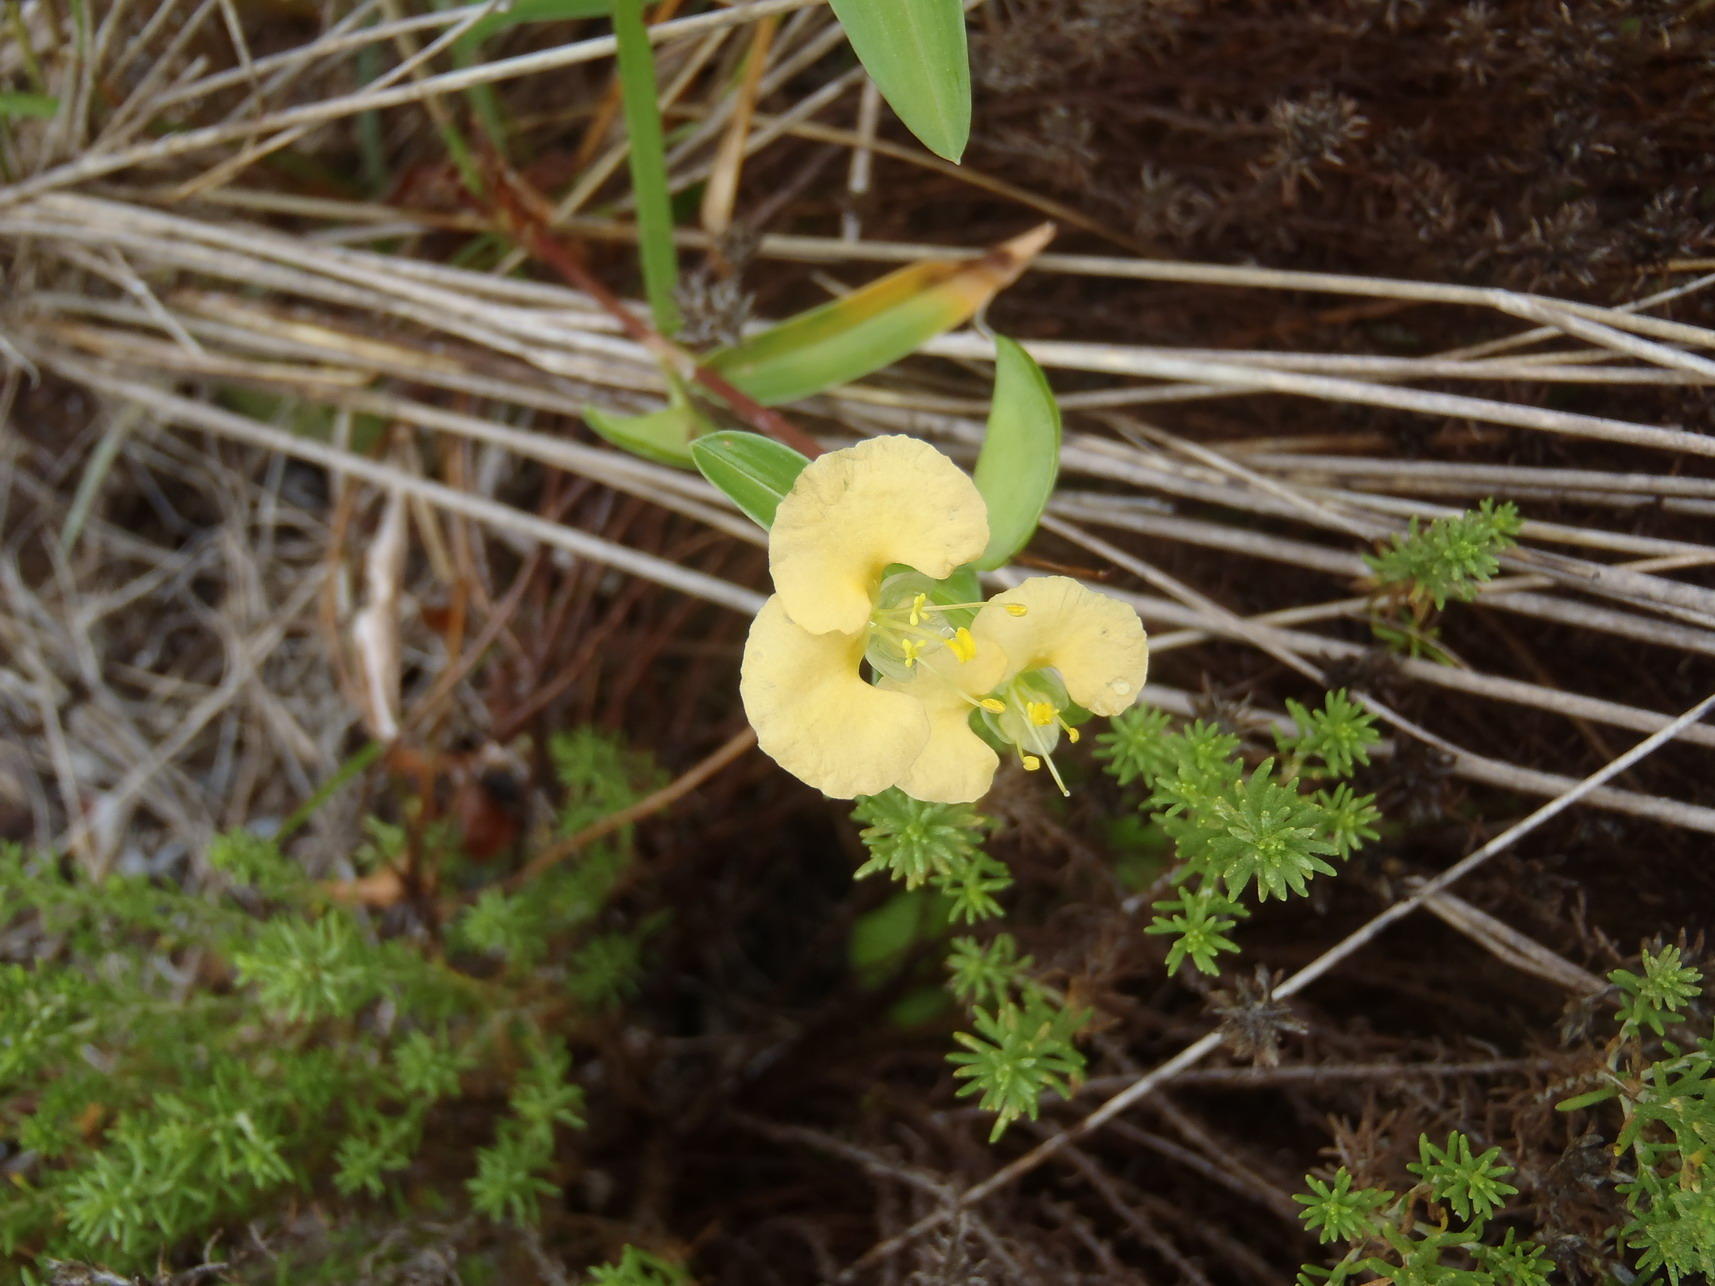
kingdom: Plantae
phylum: Tracheophyta
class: Liliopsida
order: Commelinales
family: Commelinaceae
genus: Commelina
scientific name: Commelina africana
